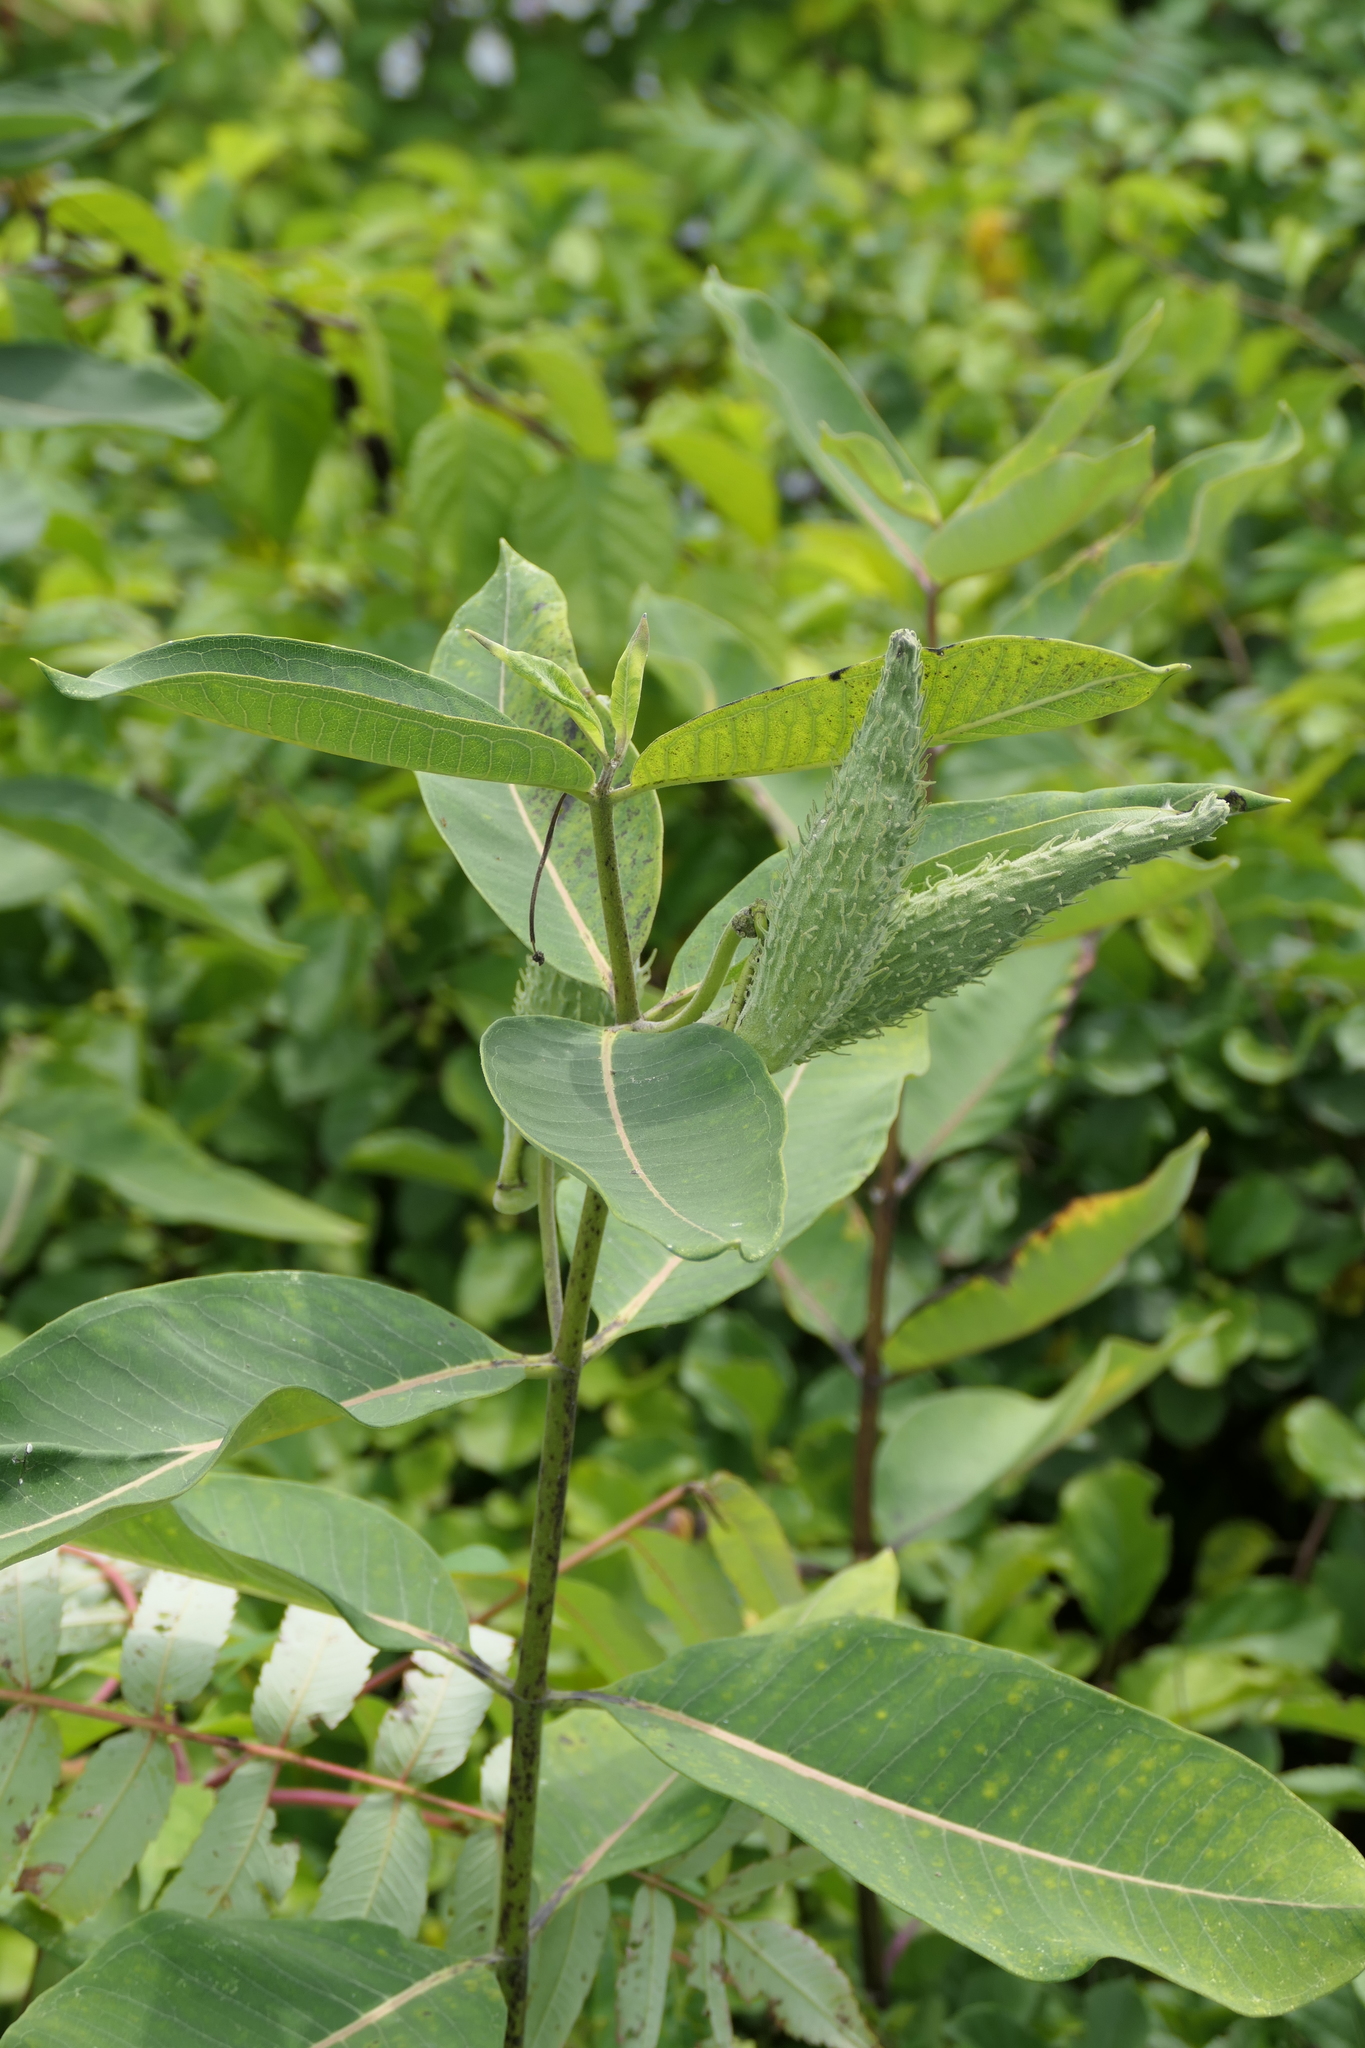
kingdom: Plantae
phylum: Tracheophyta
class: Magnoliopsida
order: Gentianales
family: Apocynaceae
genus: Asclepias
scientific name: Asclepias syriaca
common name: Common milkweed
